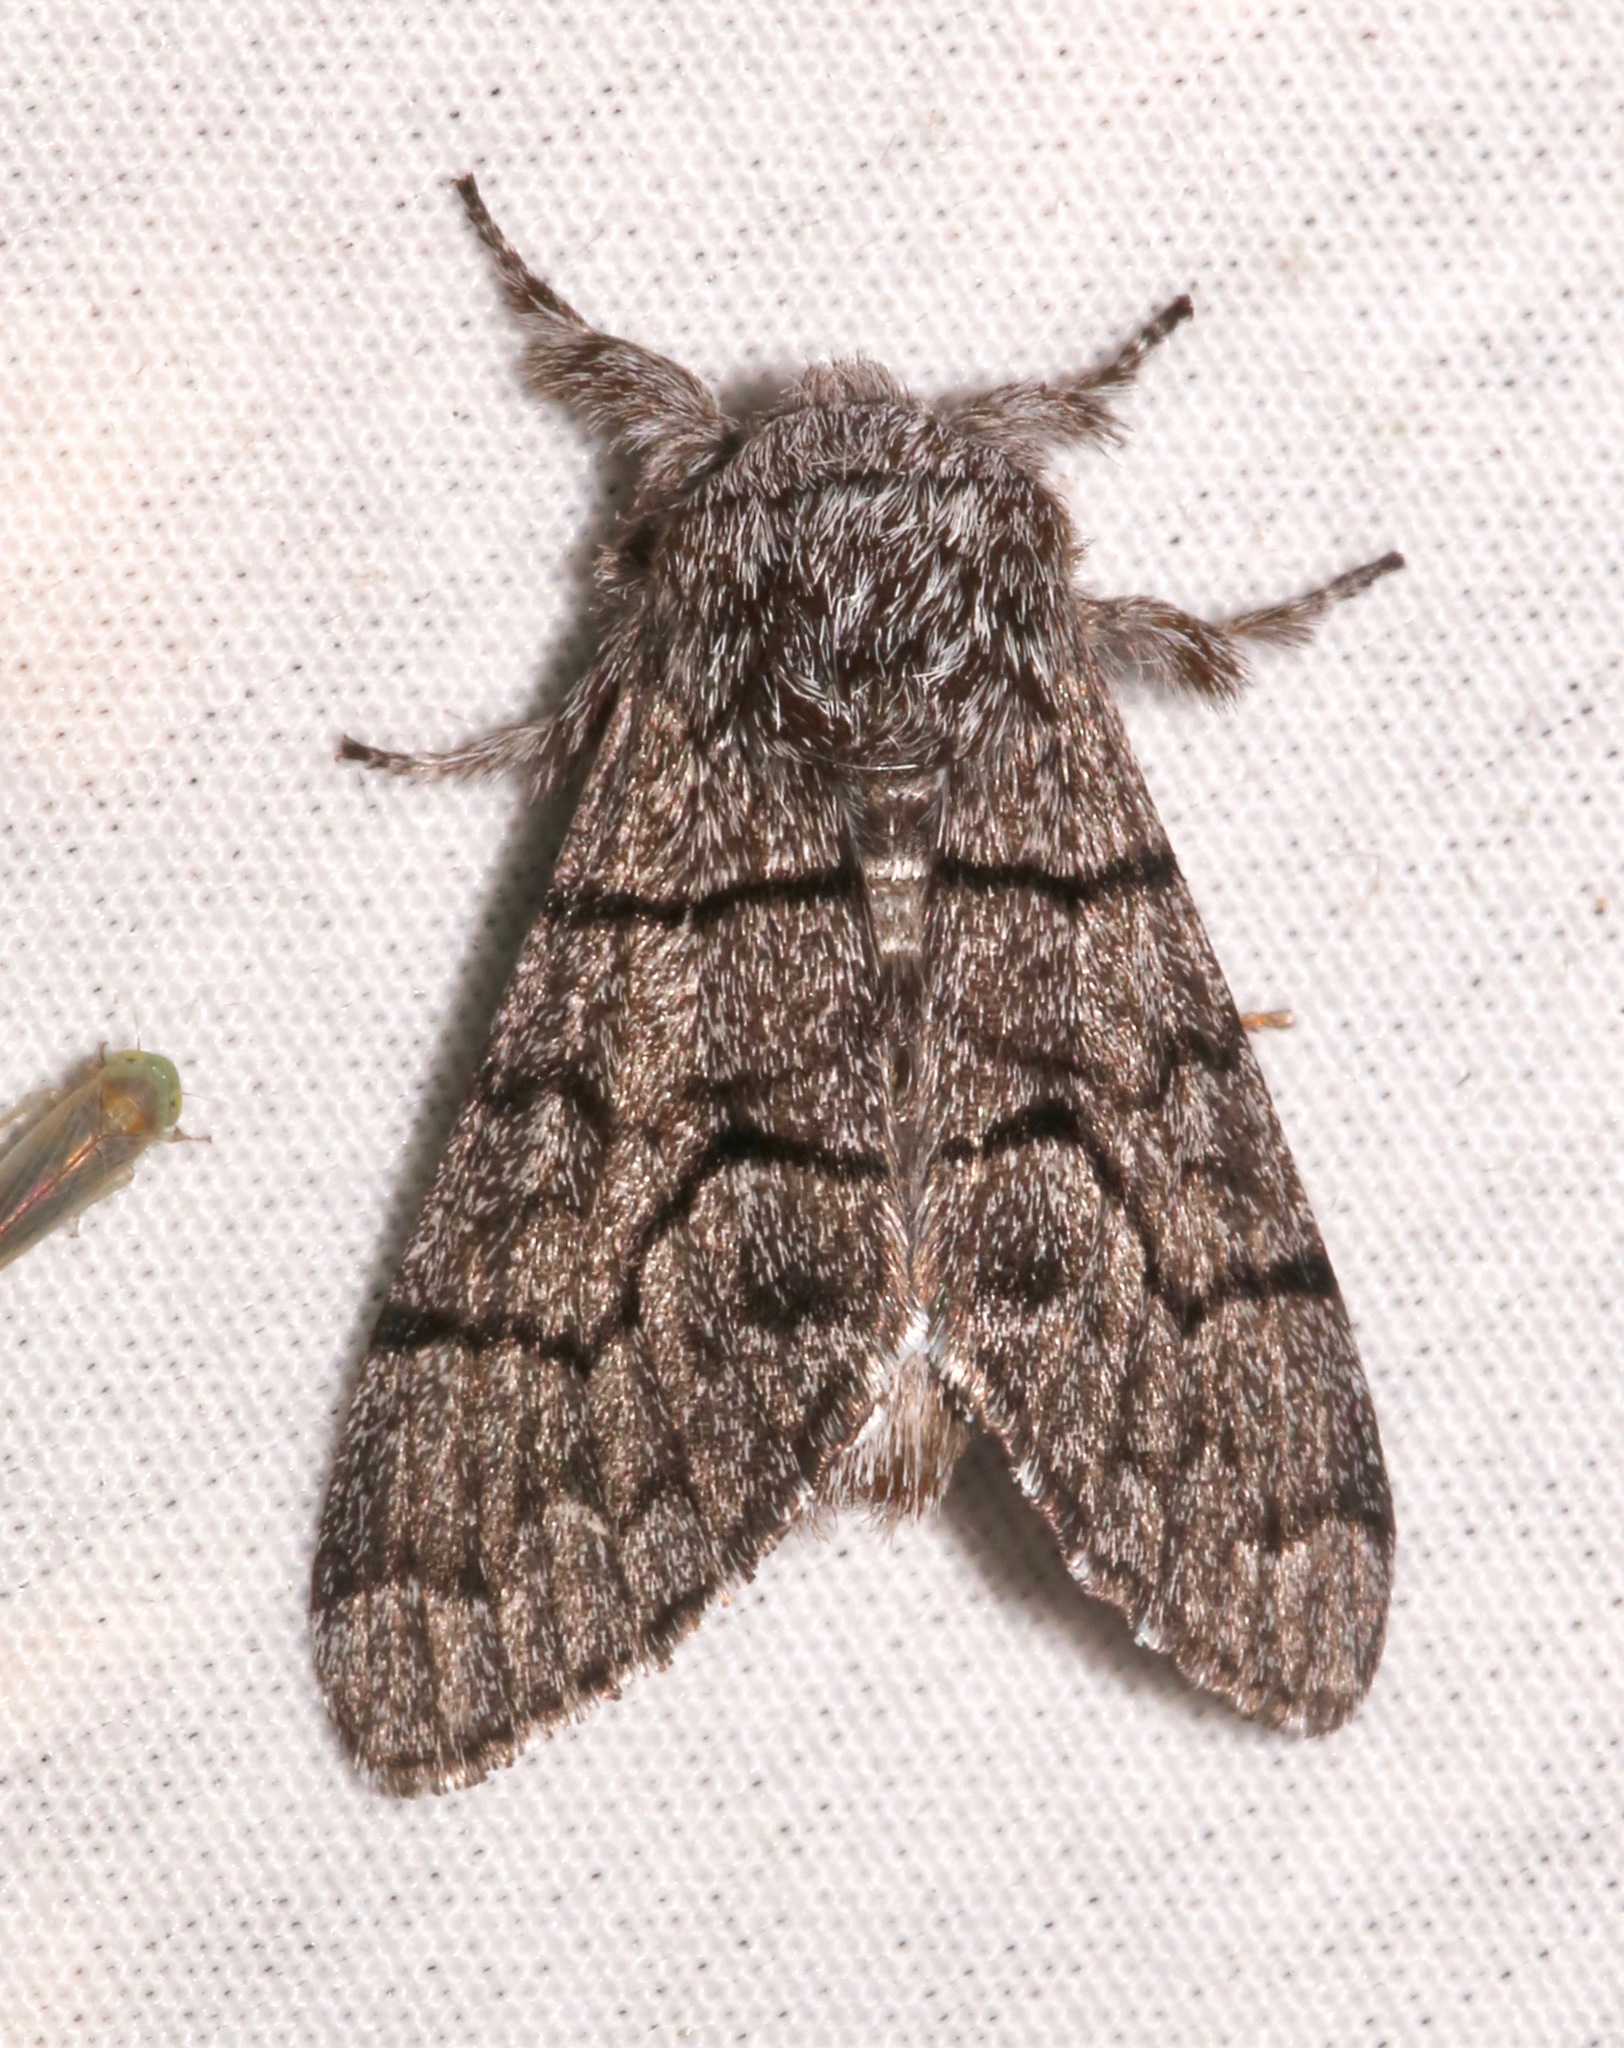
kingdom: Animalia
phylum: Arthropoda
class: Insecta
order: Lepidoptera
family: Noctuidae
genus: Panthea
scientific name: Panthea gigantea
